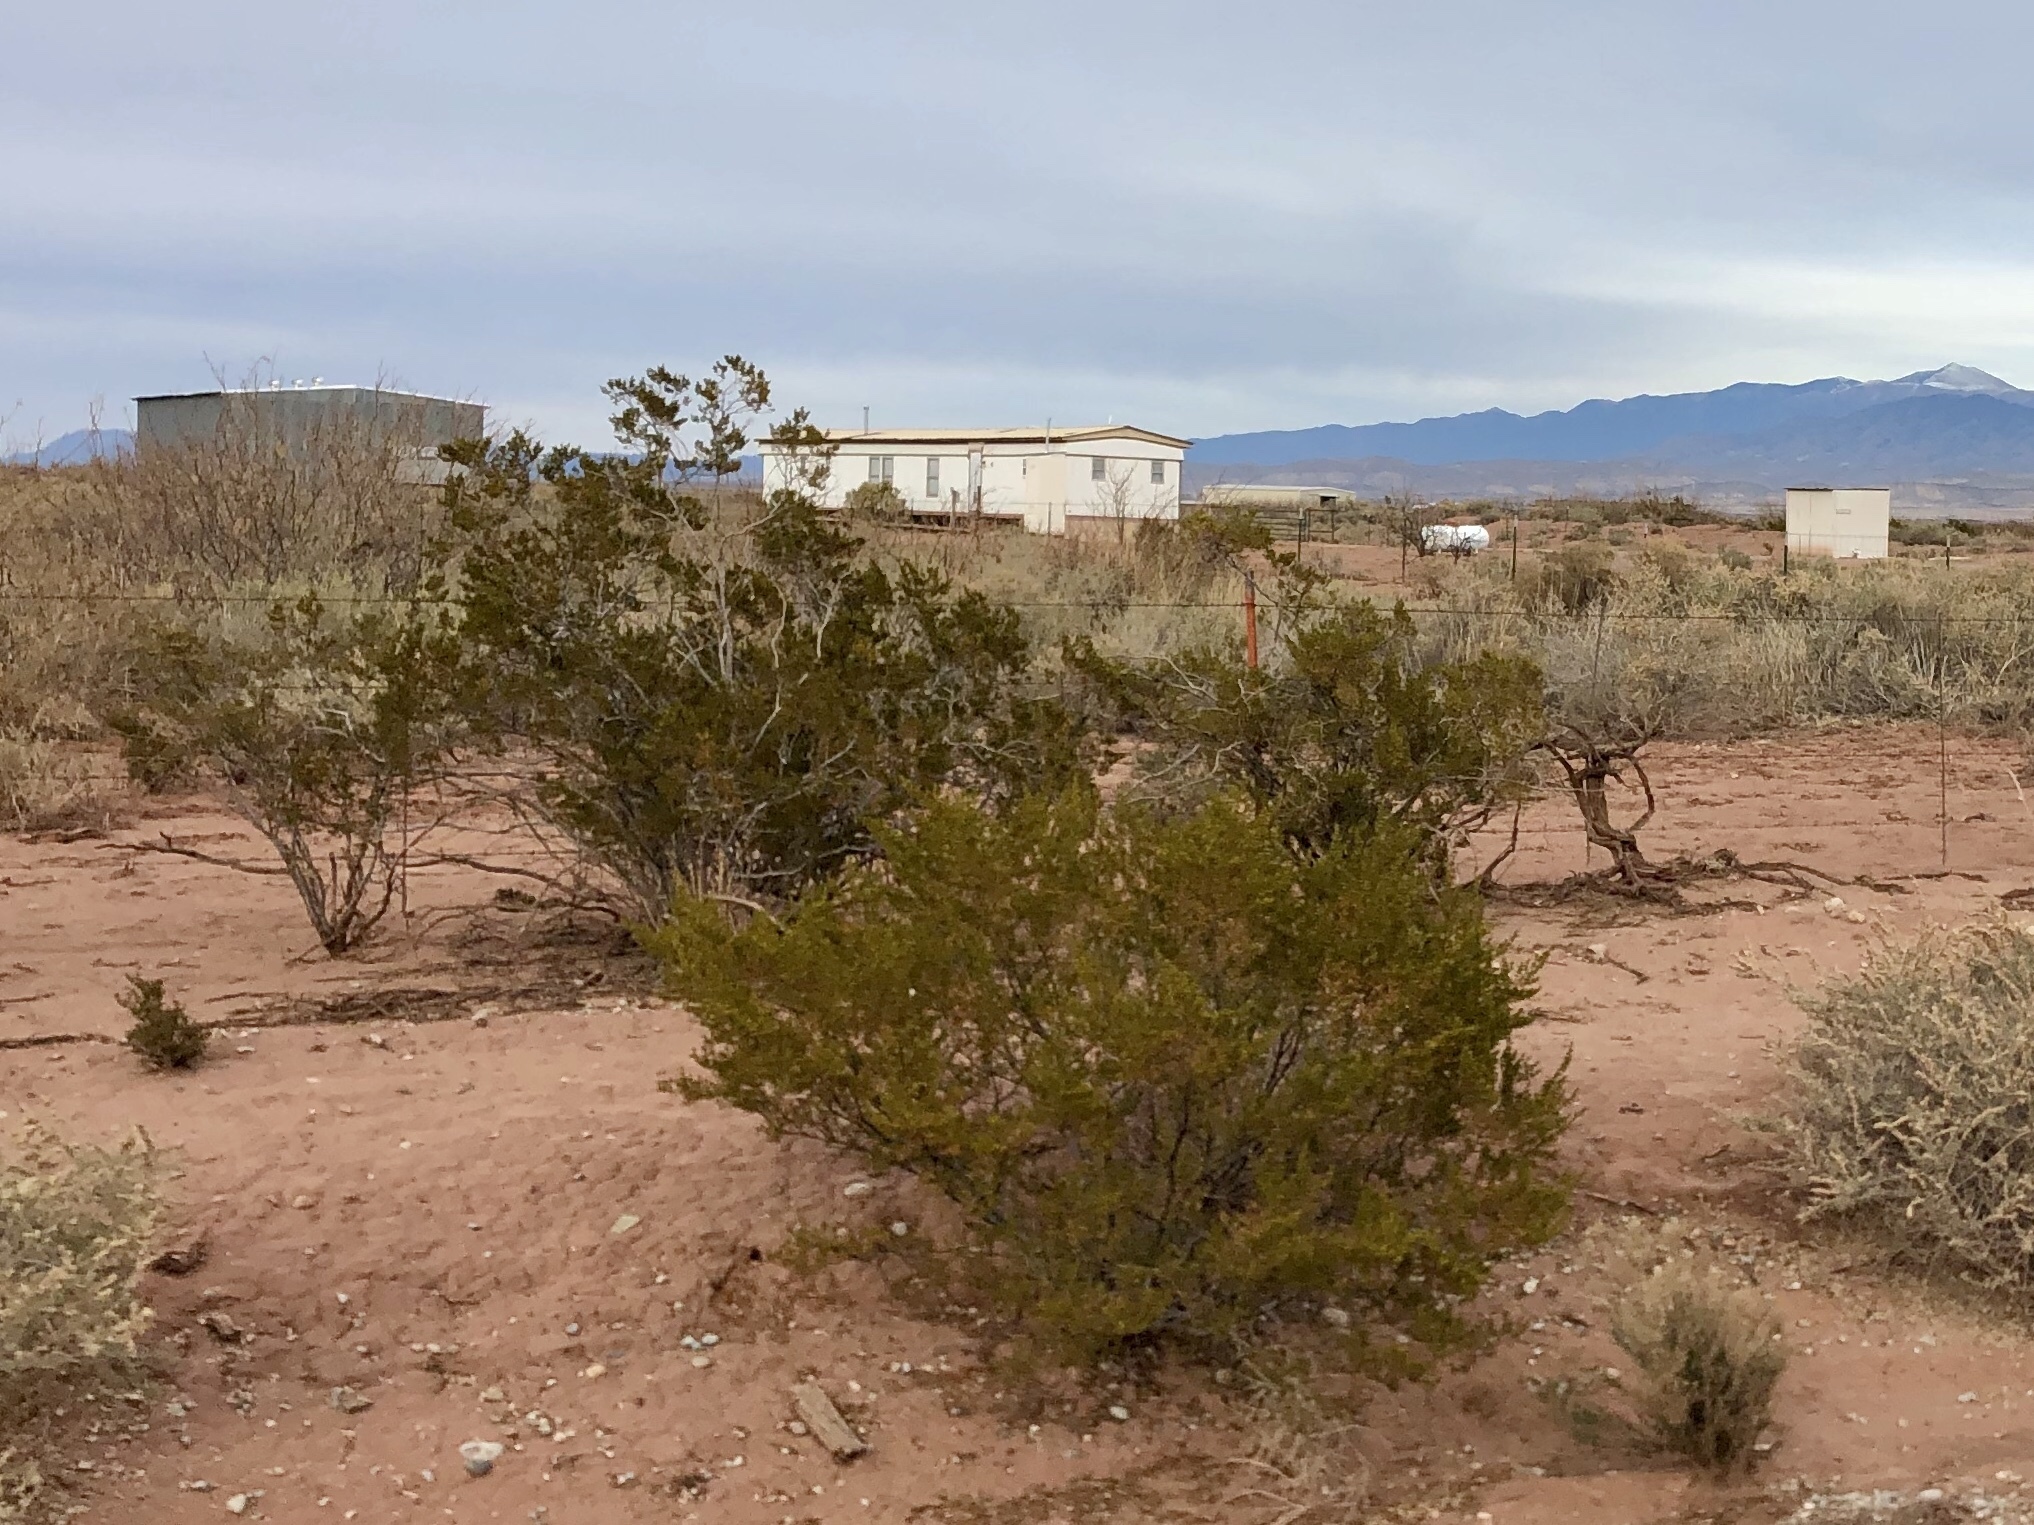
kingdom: Plantae
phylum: Tracheophyta
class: Magnoliopsida
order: Zygophyllales
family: Zygophyllaceae
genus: Larrea
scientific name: Larrea tridentata
